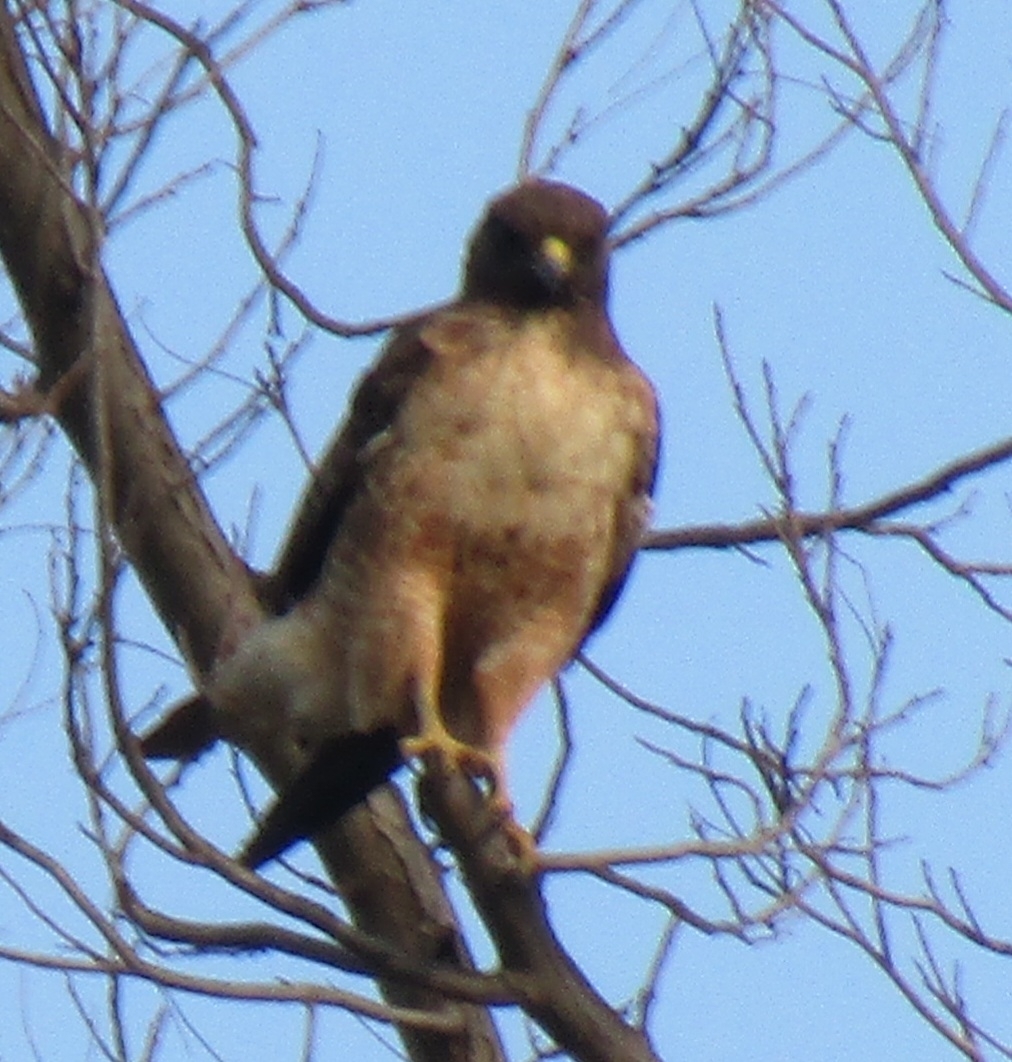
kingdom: Animalia
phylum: Chordata
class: Aves
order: Accipitriformes
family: Accipitridae
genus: Buteo
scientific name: Buteo jamaicensis
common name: Red-tailed hawk
